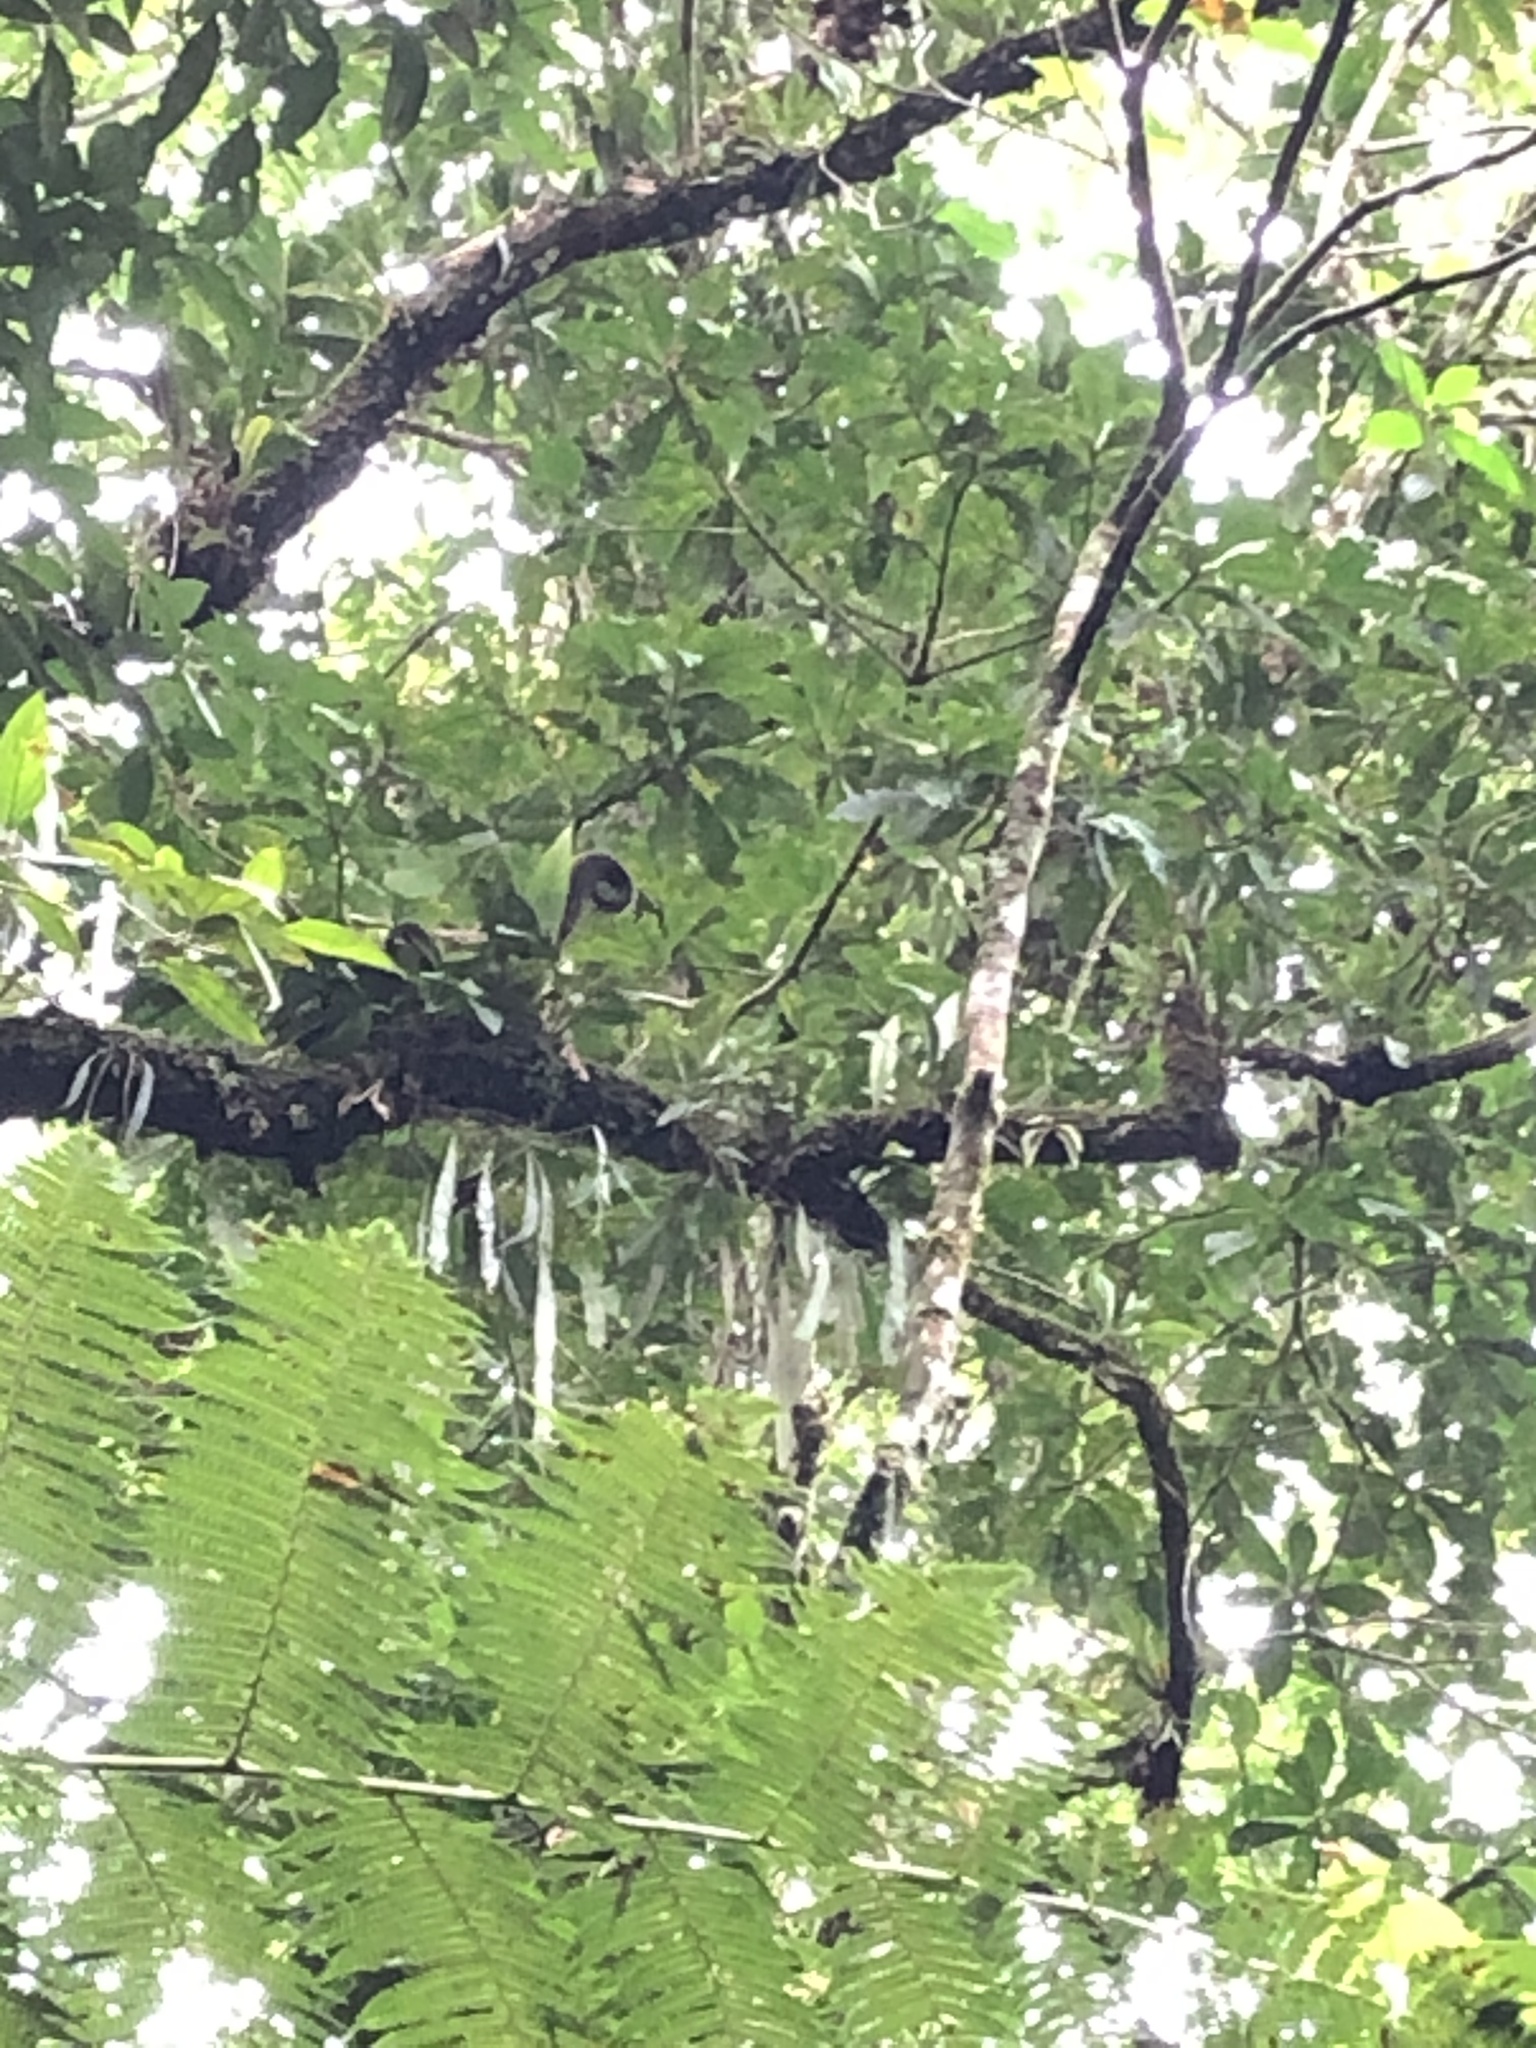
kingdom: Animalia
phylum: Chordata
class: Mammalia
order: Primates
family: Atelidae
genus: Lagothrix
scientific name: Lagothrix lagothricha
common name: Brown woolly monkey
